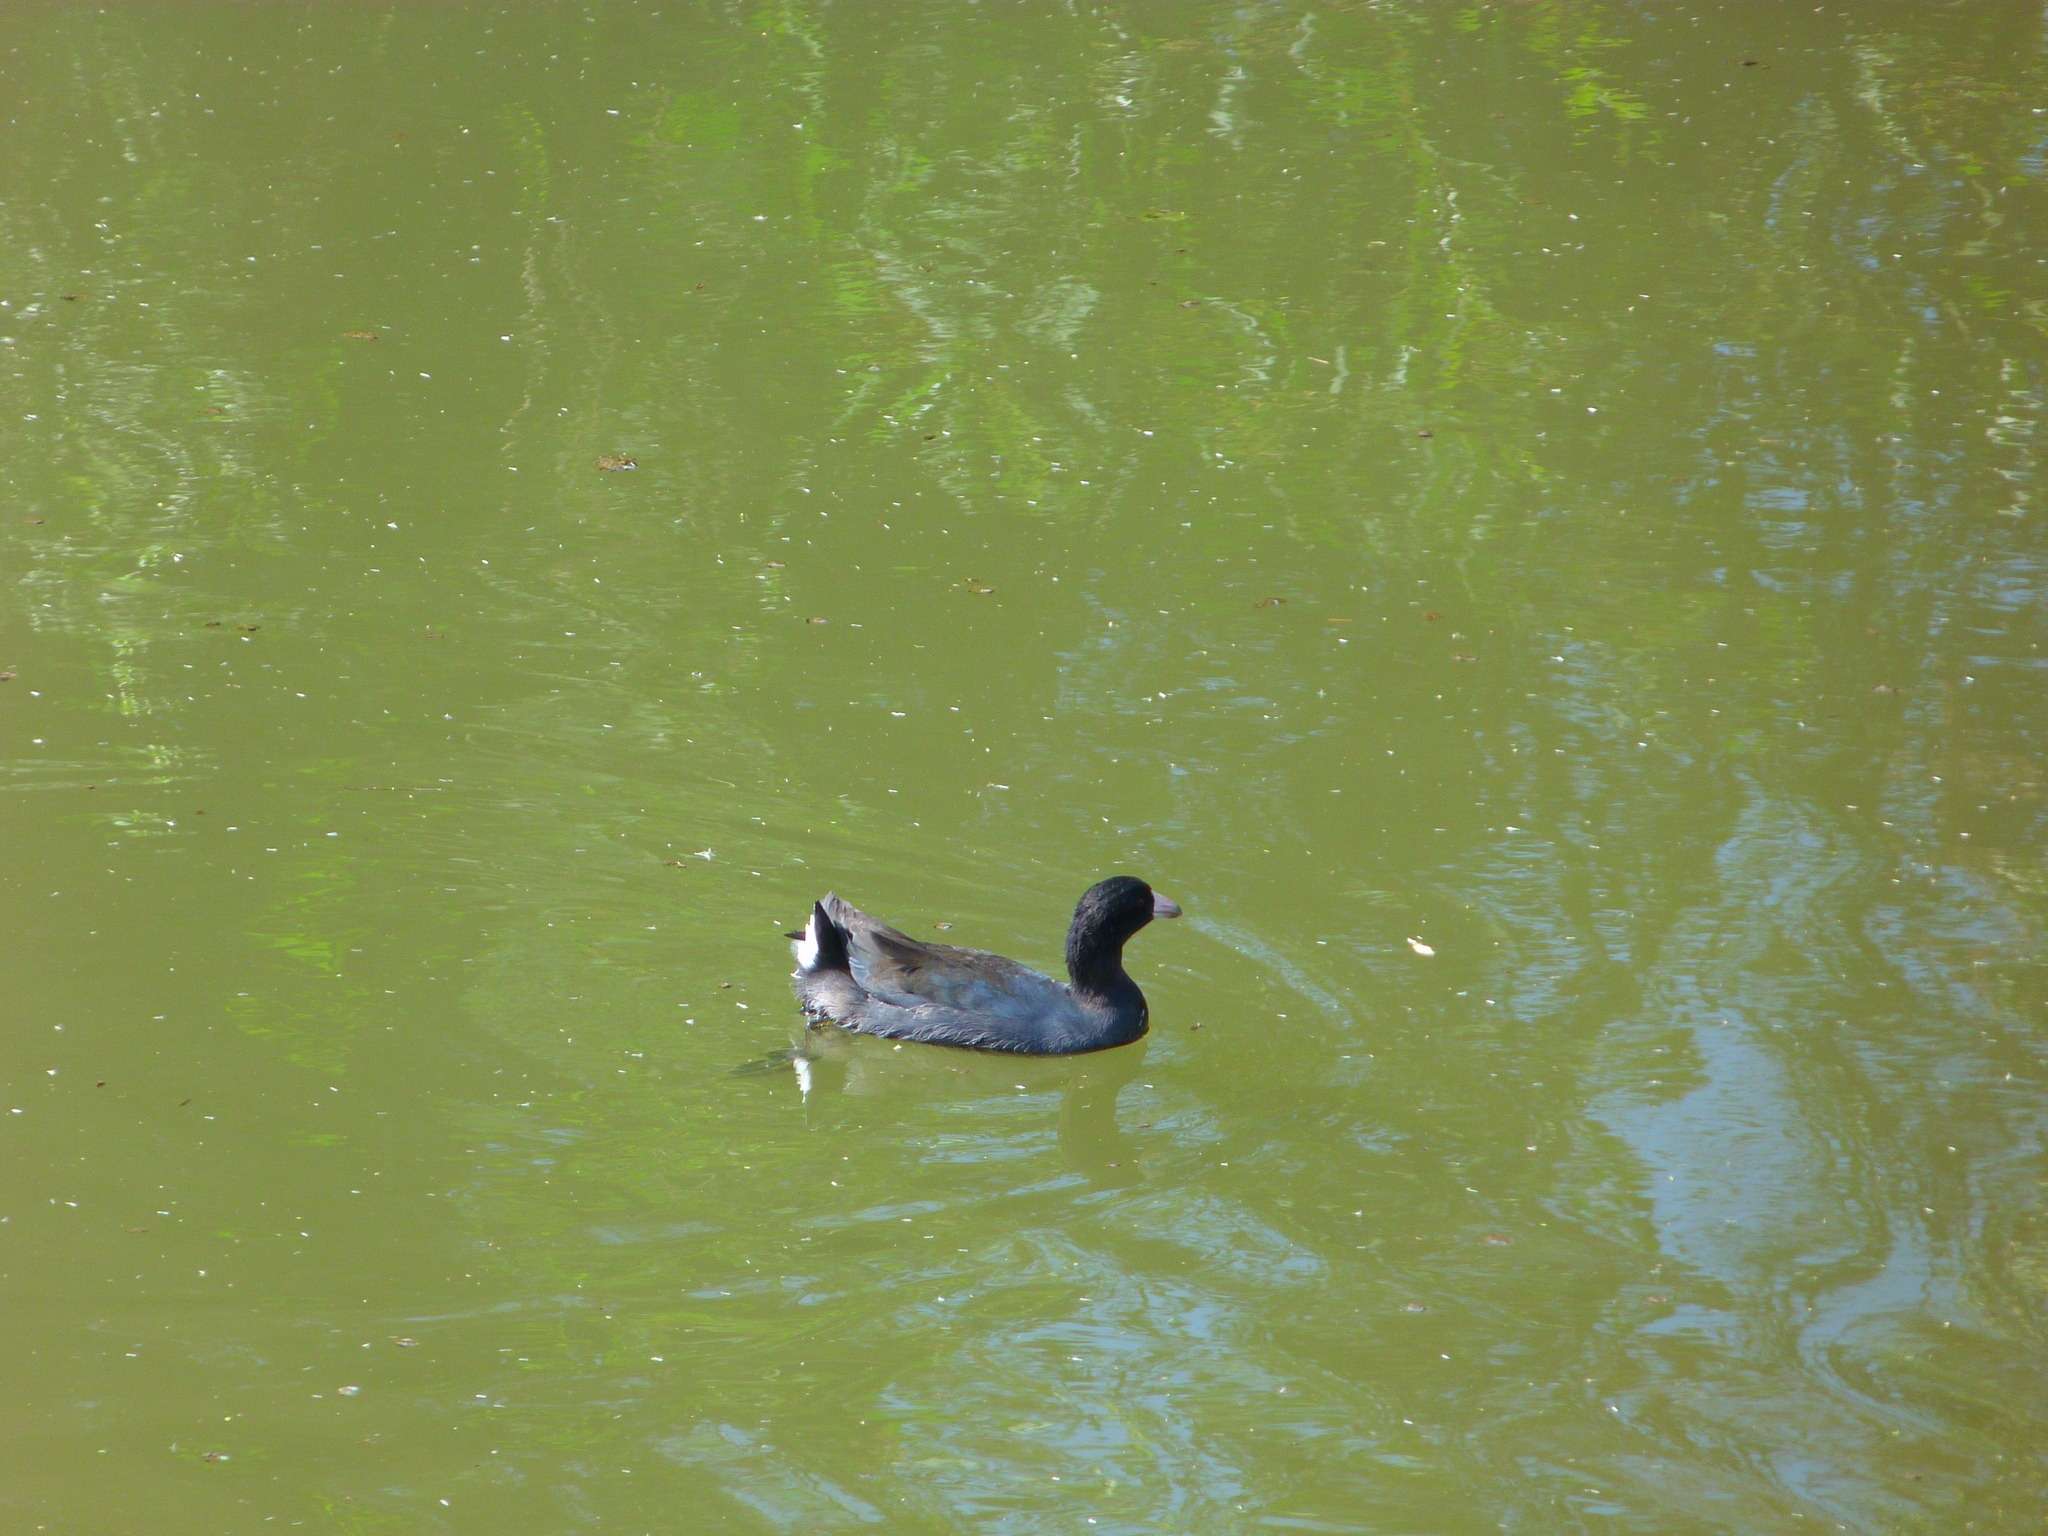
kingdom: Animalia
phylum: Chordata
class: Aves
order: Gruiformes
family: Rallidae
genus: Fulica
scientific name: Fulica americana
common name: American coot
